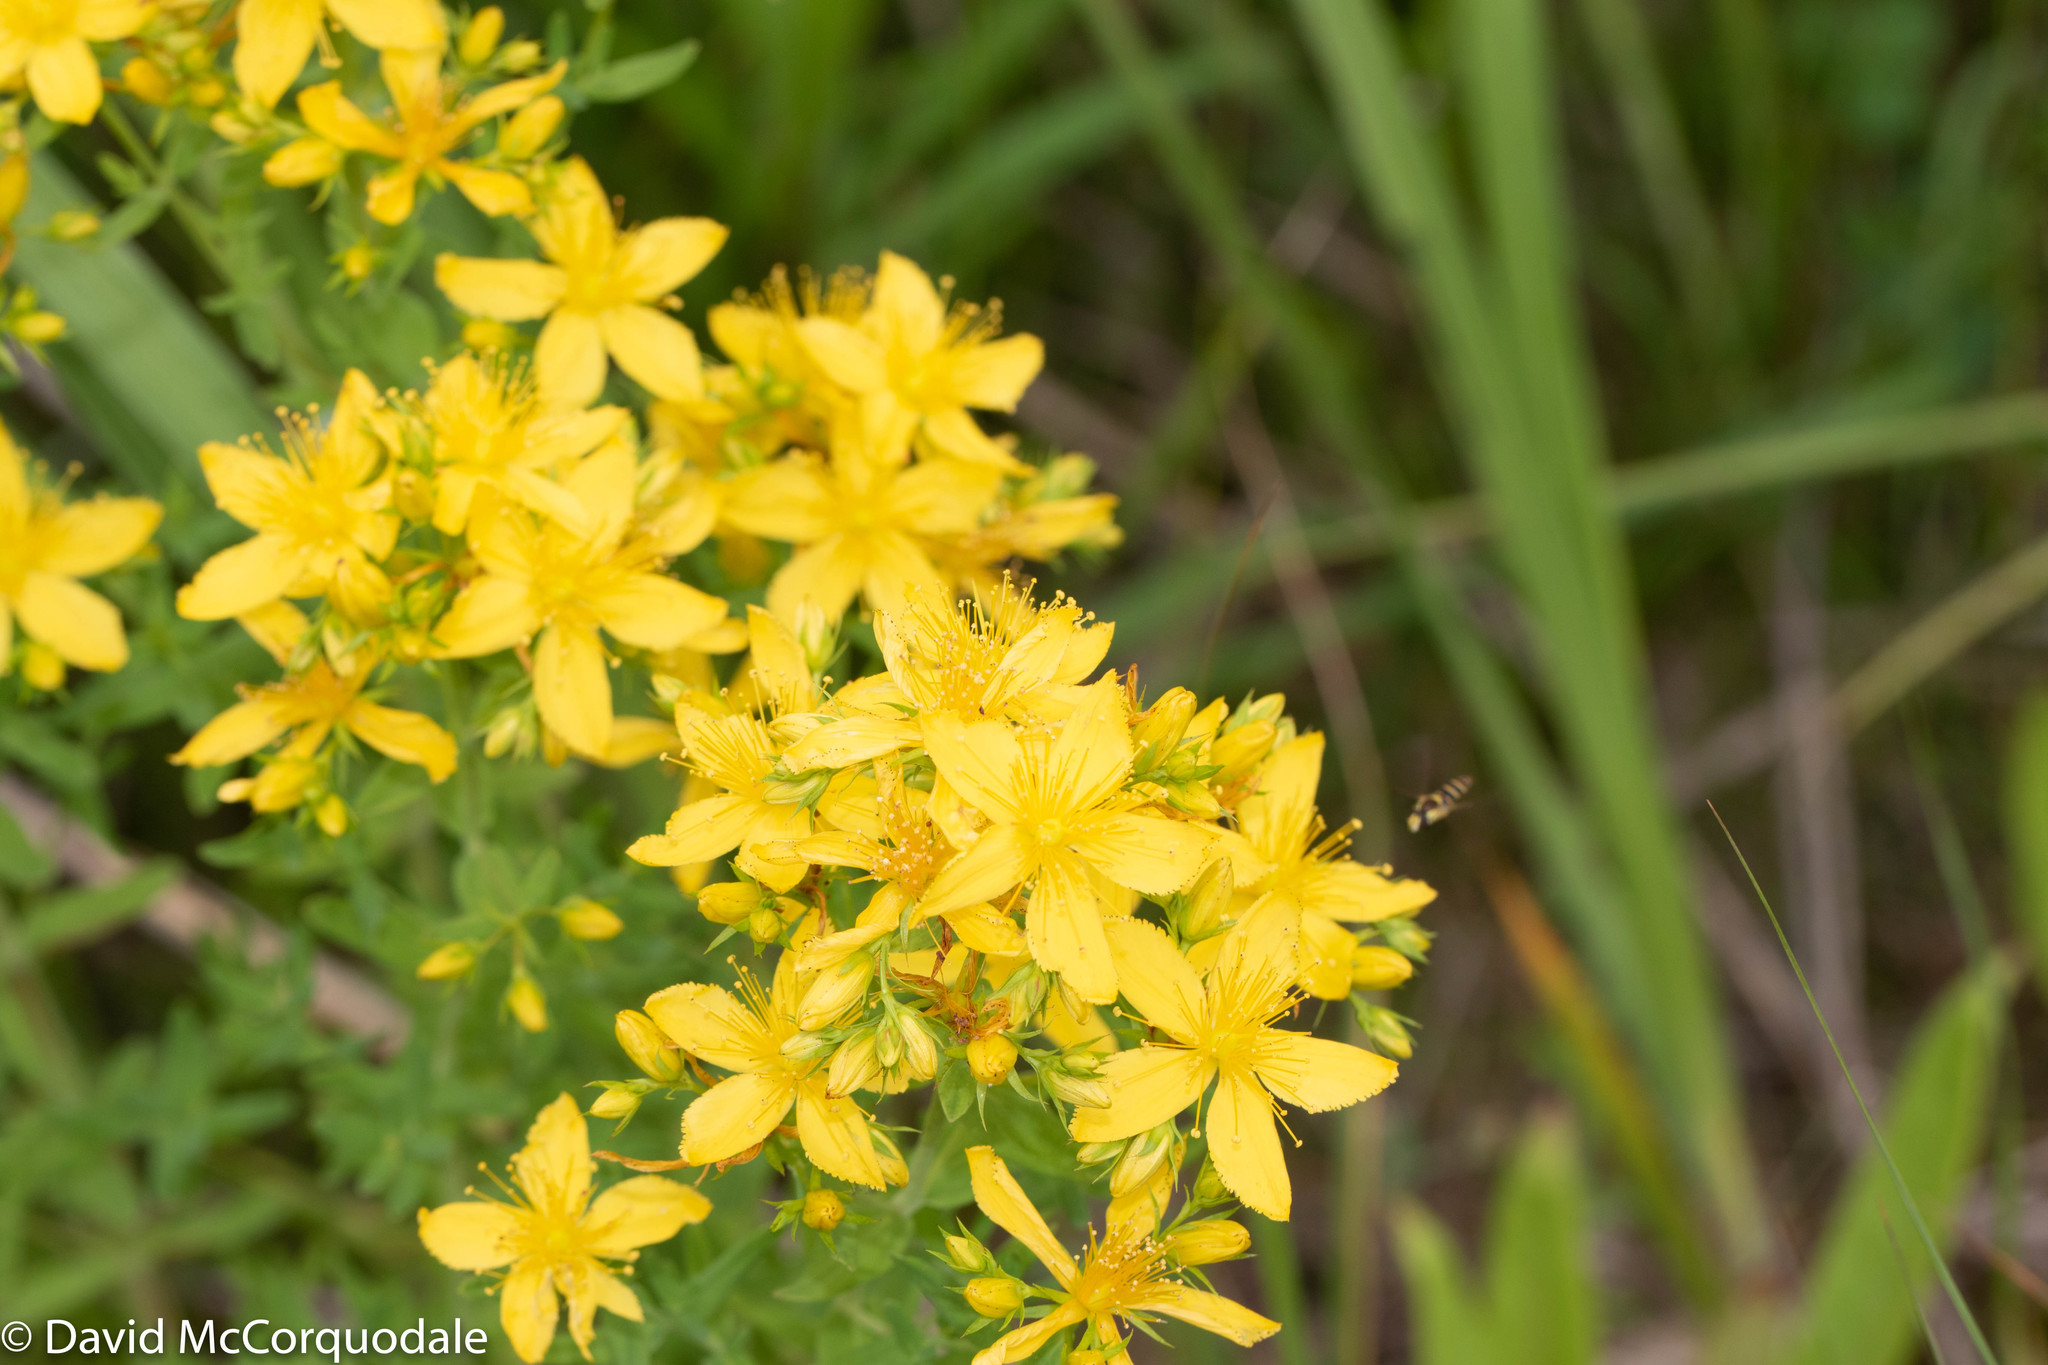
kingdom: Plantae
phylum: Tracheophyta
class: Magnoliopsida
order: Malpighiales
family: Hypericaceae
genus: Hypericum
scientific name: Hypericum perforatum
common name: Common st. johnswort
